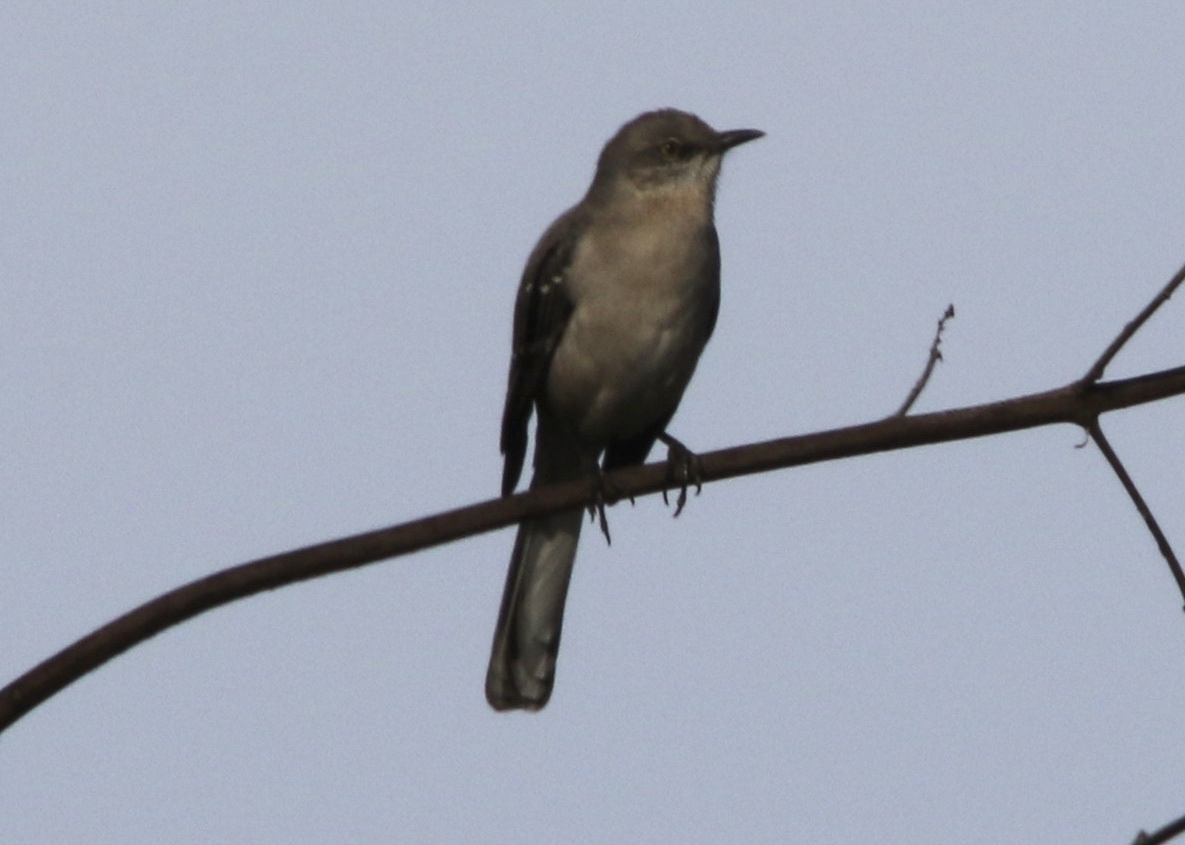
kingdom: Animalia
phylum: Chordata
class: Aves
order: Passeriformes
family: Mimidae
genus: Mimus
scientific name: Mimus polyglottos
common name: Northern mockingbird
